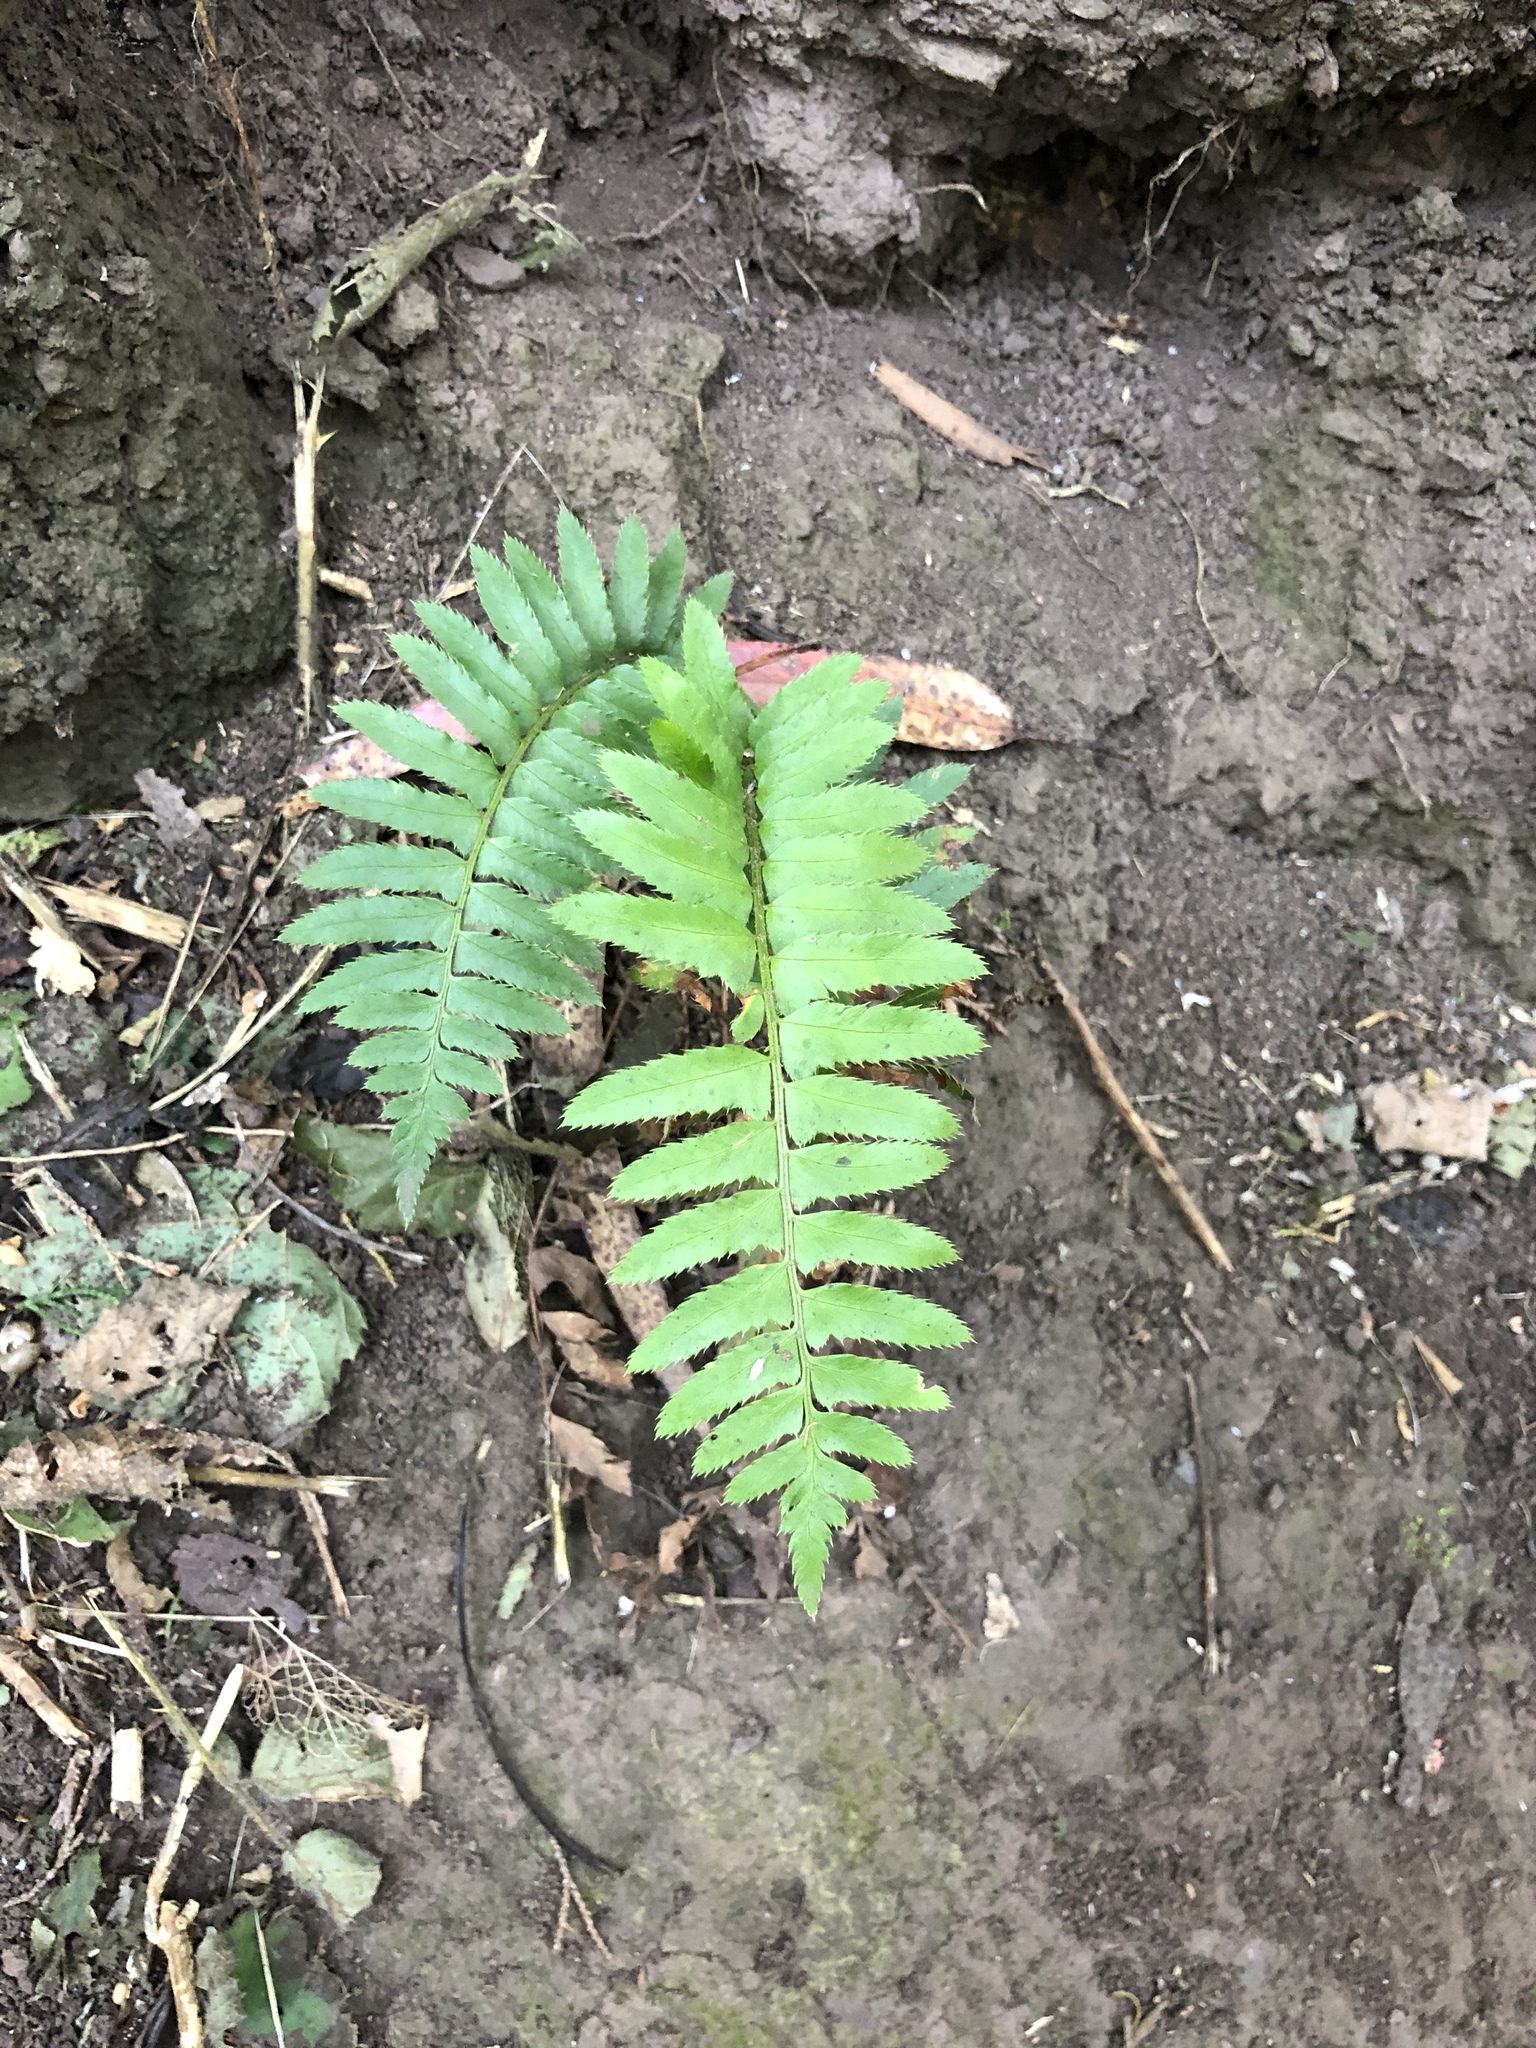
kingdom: Plantae
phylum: Tracheophyta
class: Polypodiopsida
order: Polypodiales
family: Dryopteridaceae
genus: Polystichum
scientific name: Polystichum munitum
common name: Western sword-fern
